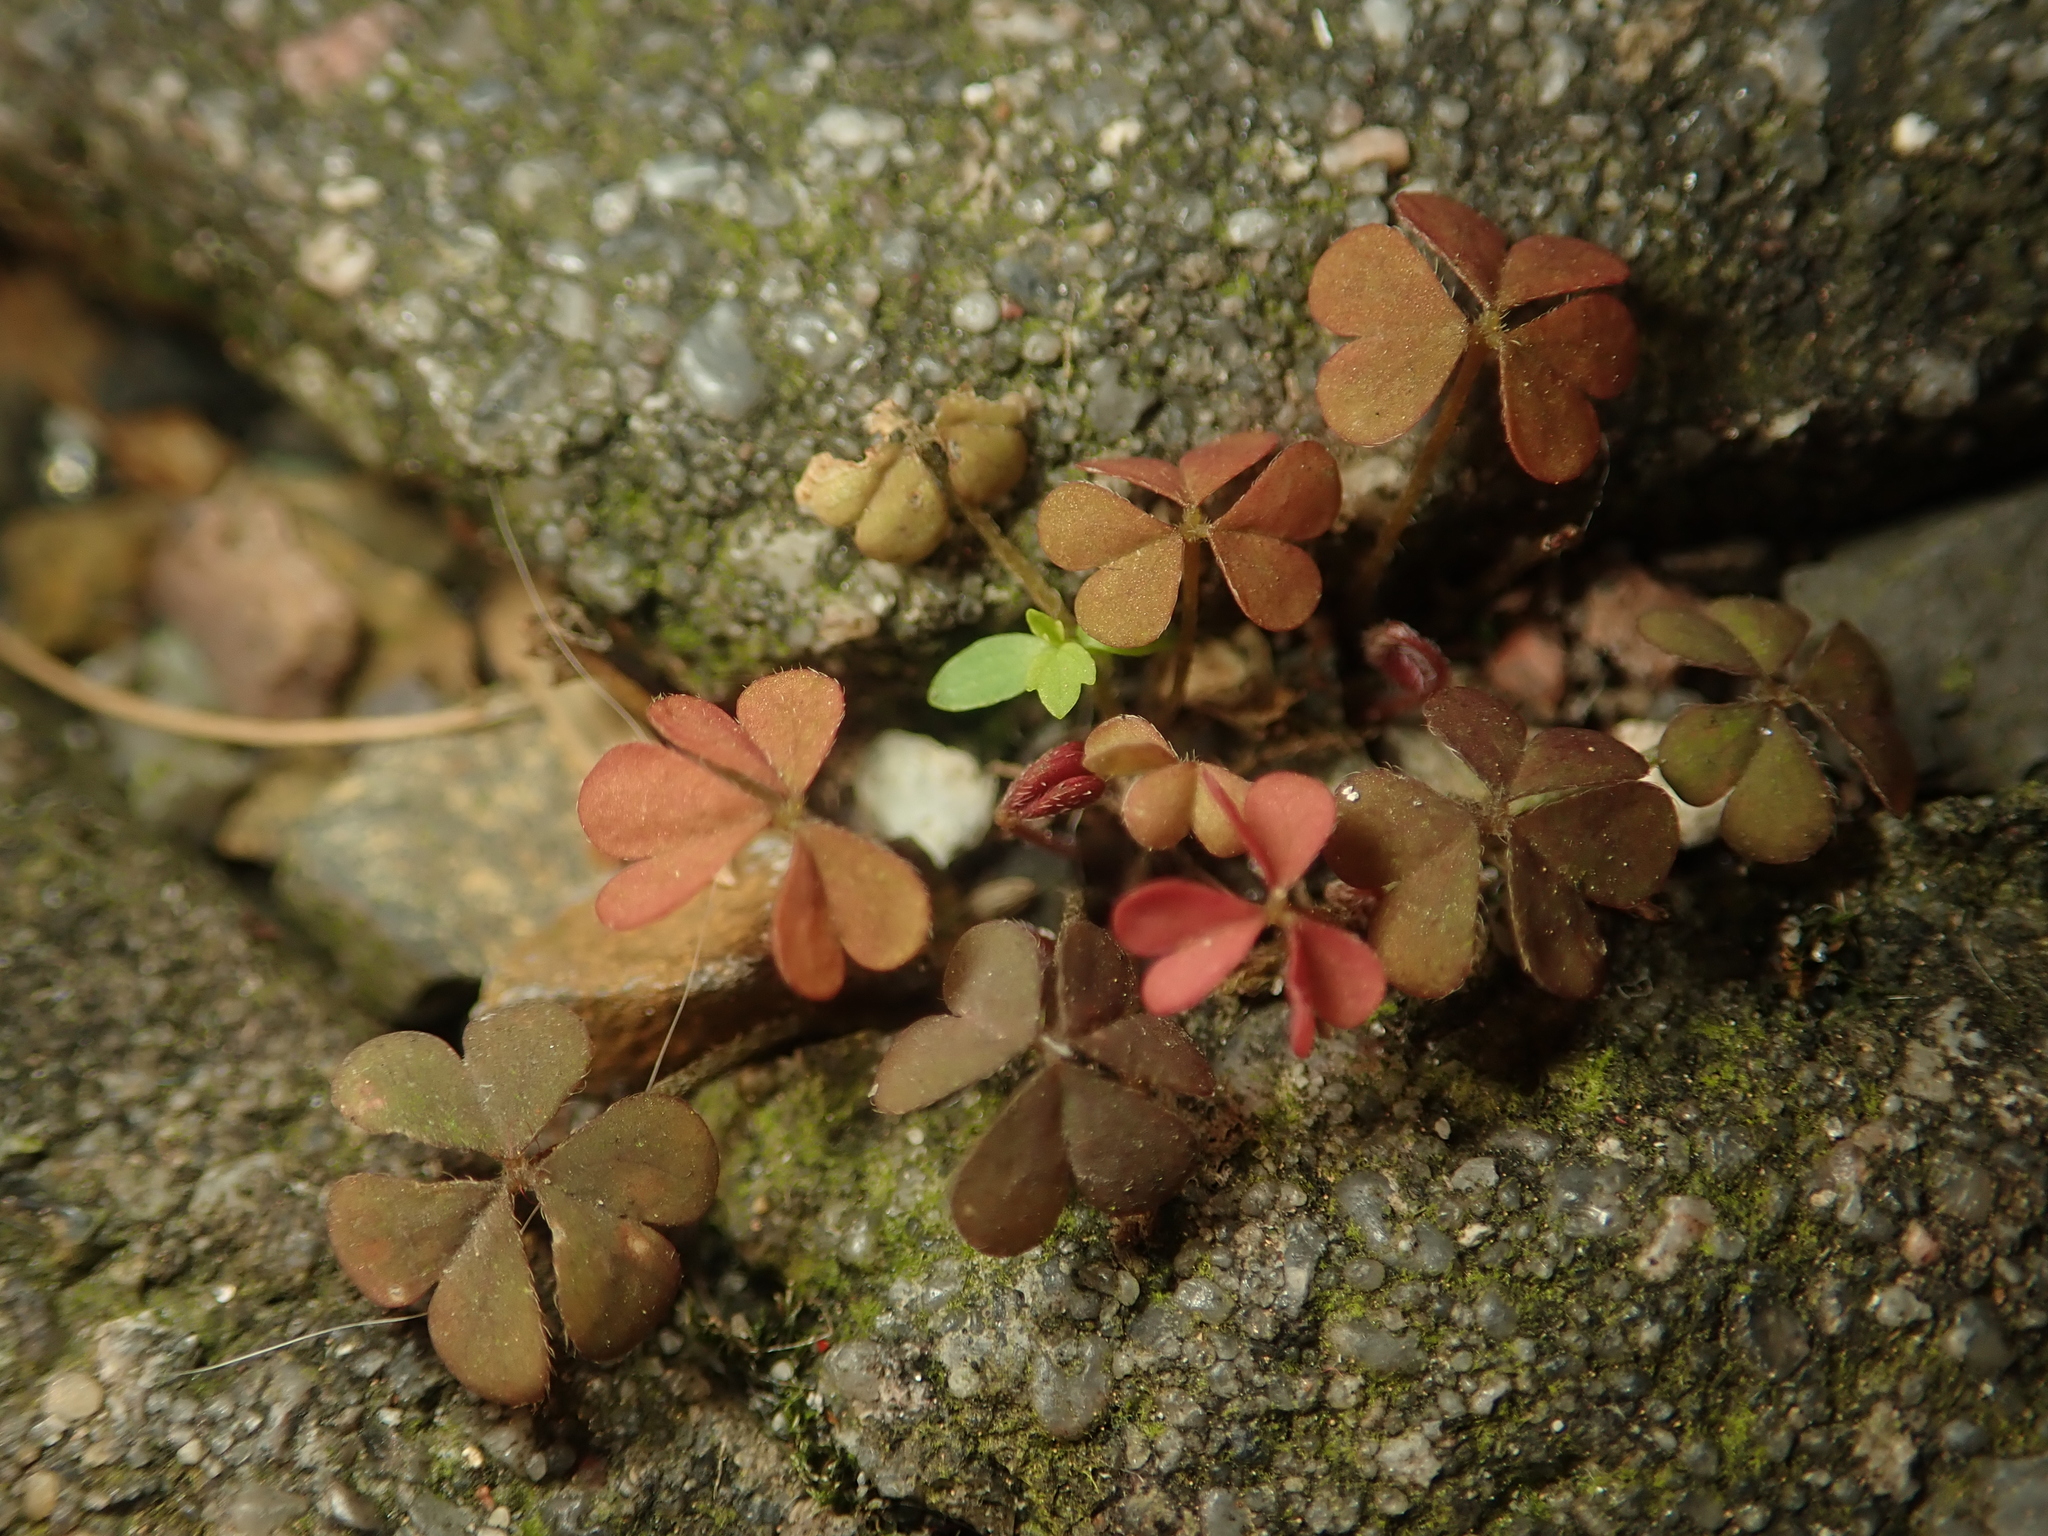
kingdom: Plantae
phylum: Tracheophyta
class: Magnoliopsida
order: Oxalidales
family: Oxalidaceae
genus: Oxalis
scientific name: Oxalis corniculata
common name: Procumbent yellow-sorrel
